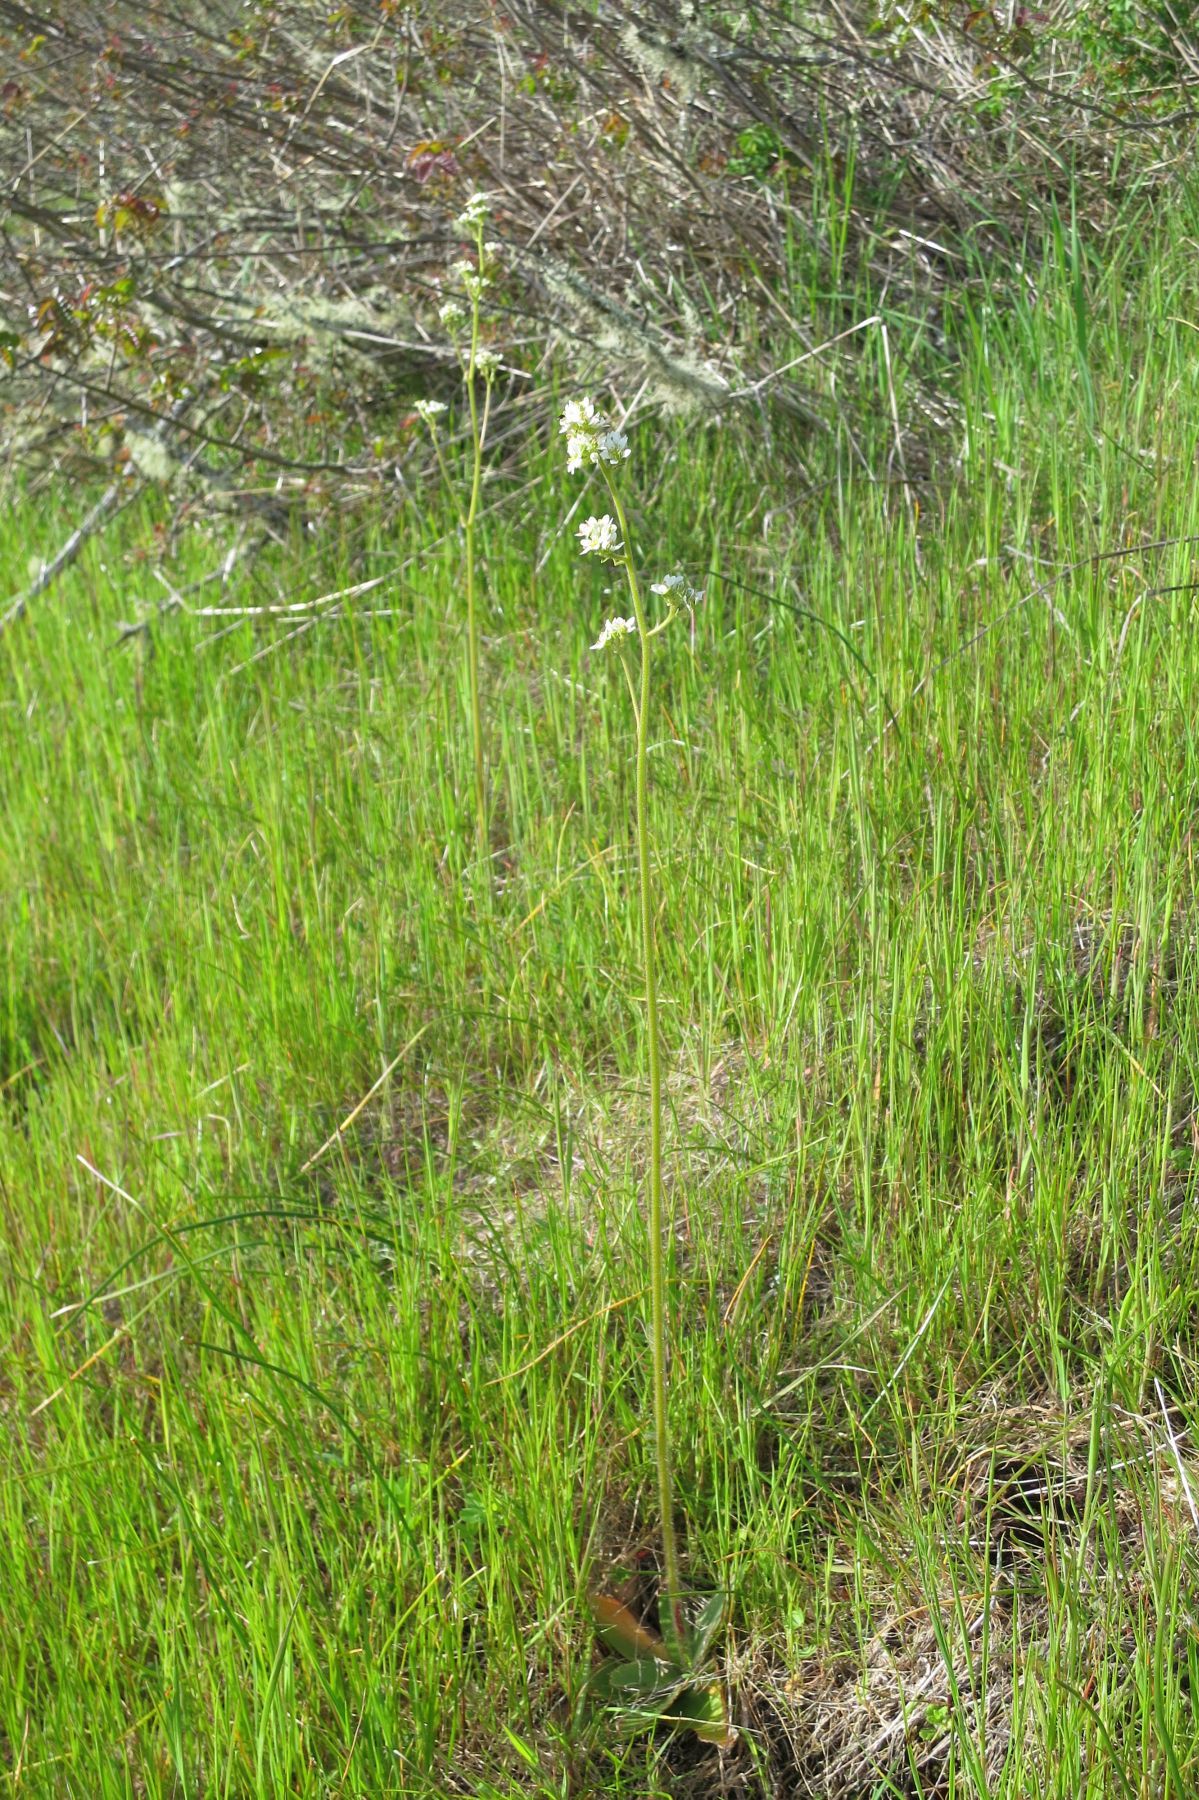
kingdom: Plantae
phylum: Tracheophyta
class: Magnoliopsida
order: Saxifragales
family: Saxifragaceae
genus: Micranthes
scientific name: Micranthes integrifolia
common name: Wholeleaf saxifrage
